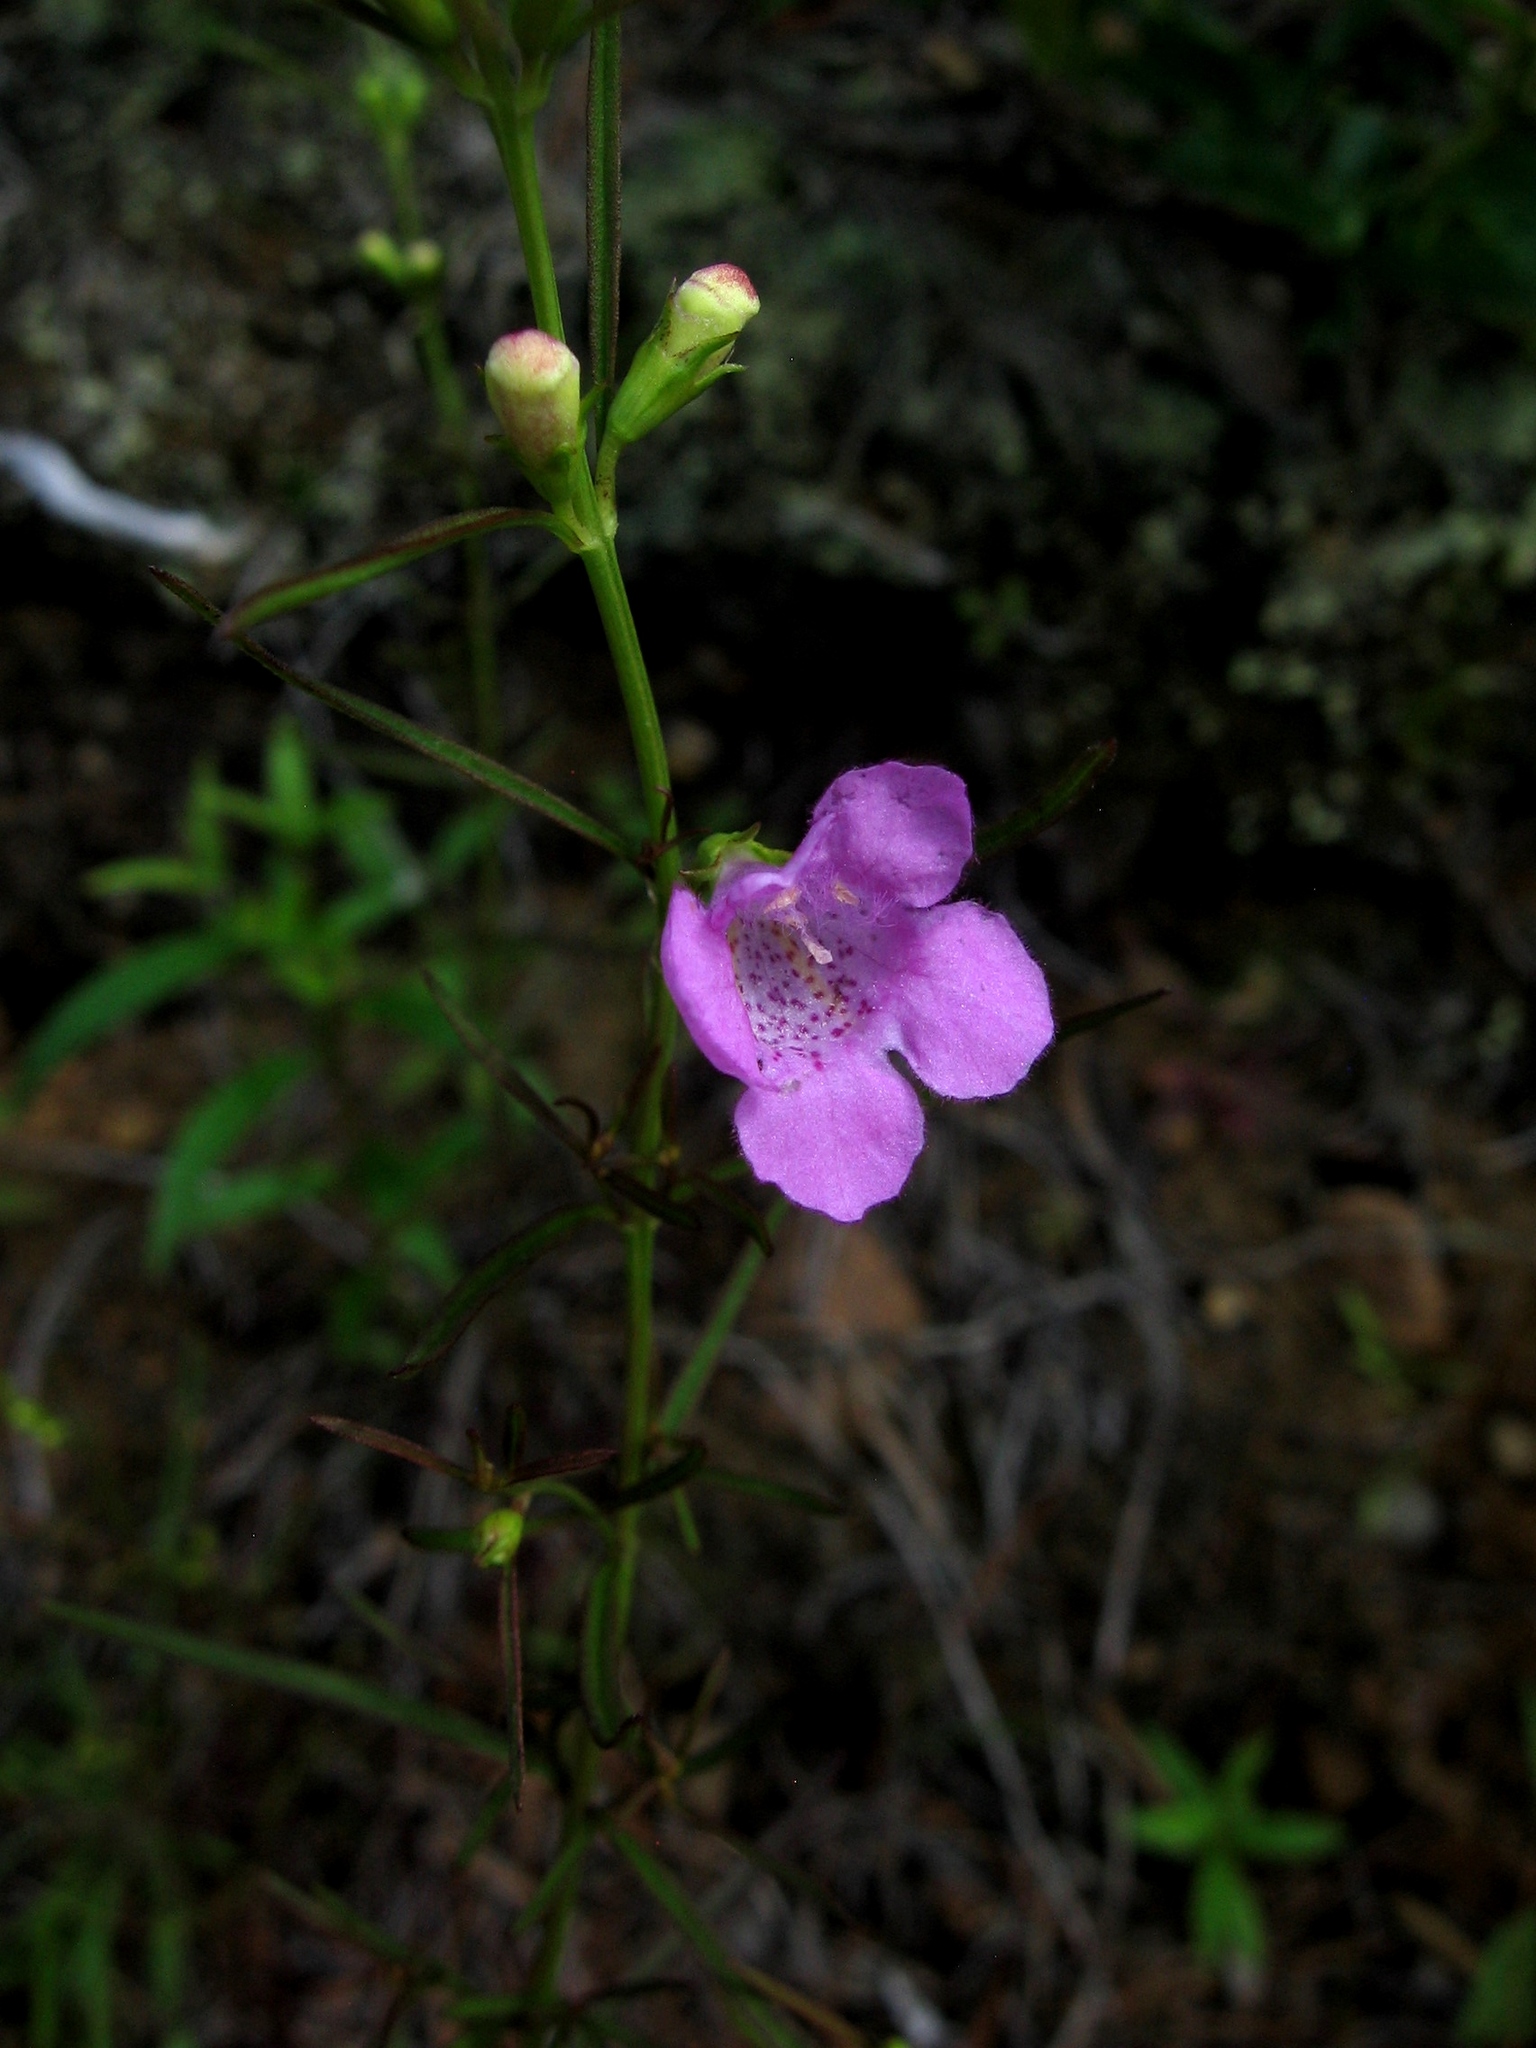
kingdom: Plantae
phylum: Tracheophyta
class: Magnoliopsida
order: Lamiales
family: Orobanchaceae
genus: Agalinis
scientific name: Agalinis purpurea
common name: Purple false foxglove
